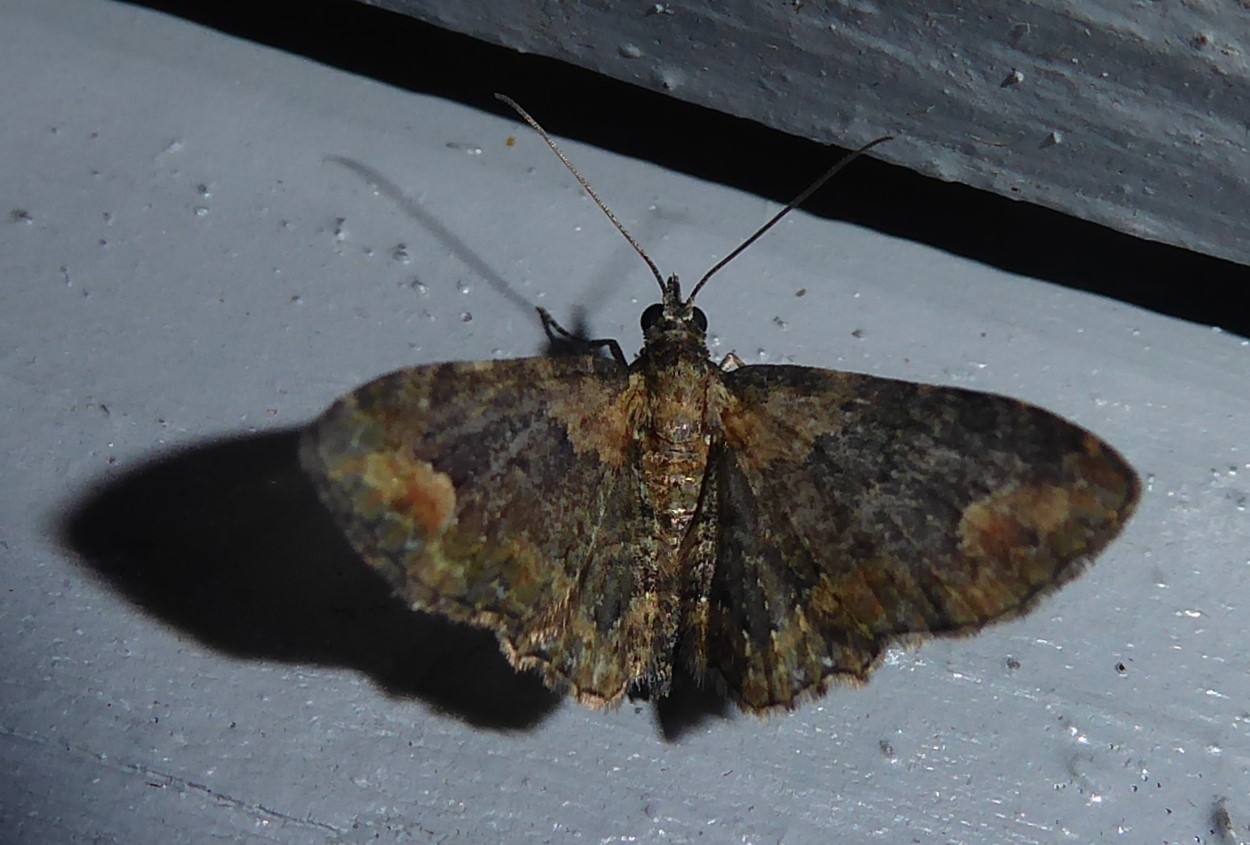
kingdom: Animalia
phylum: Arthropoda
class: Insecta
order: Lepidoptera
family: Geometridae
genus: Pasiphilodes
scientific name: Pasiphilodes testulata
